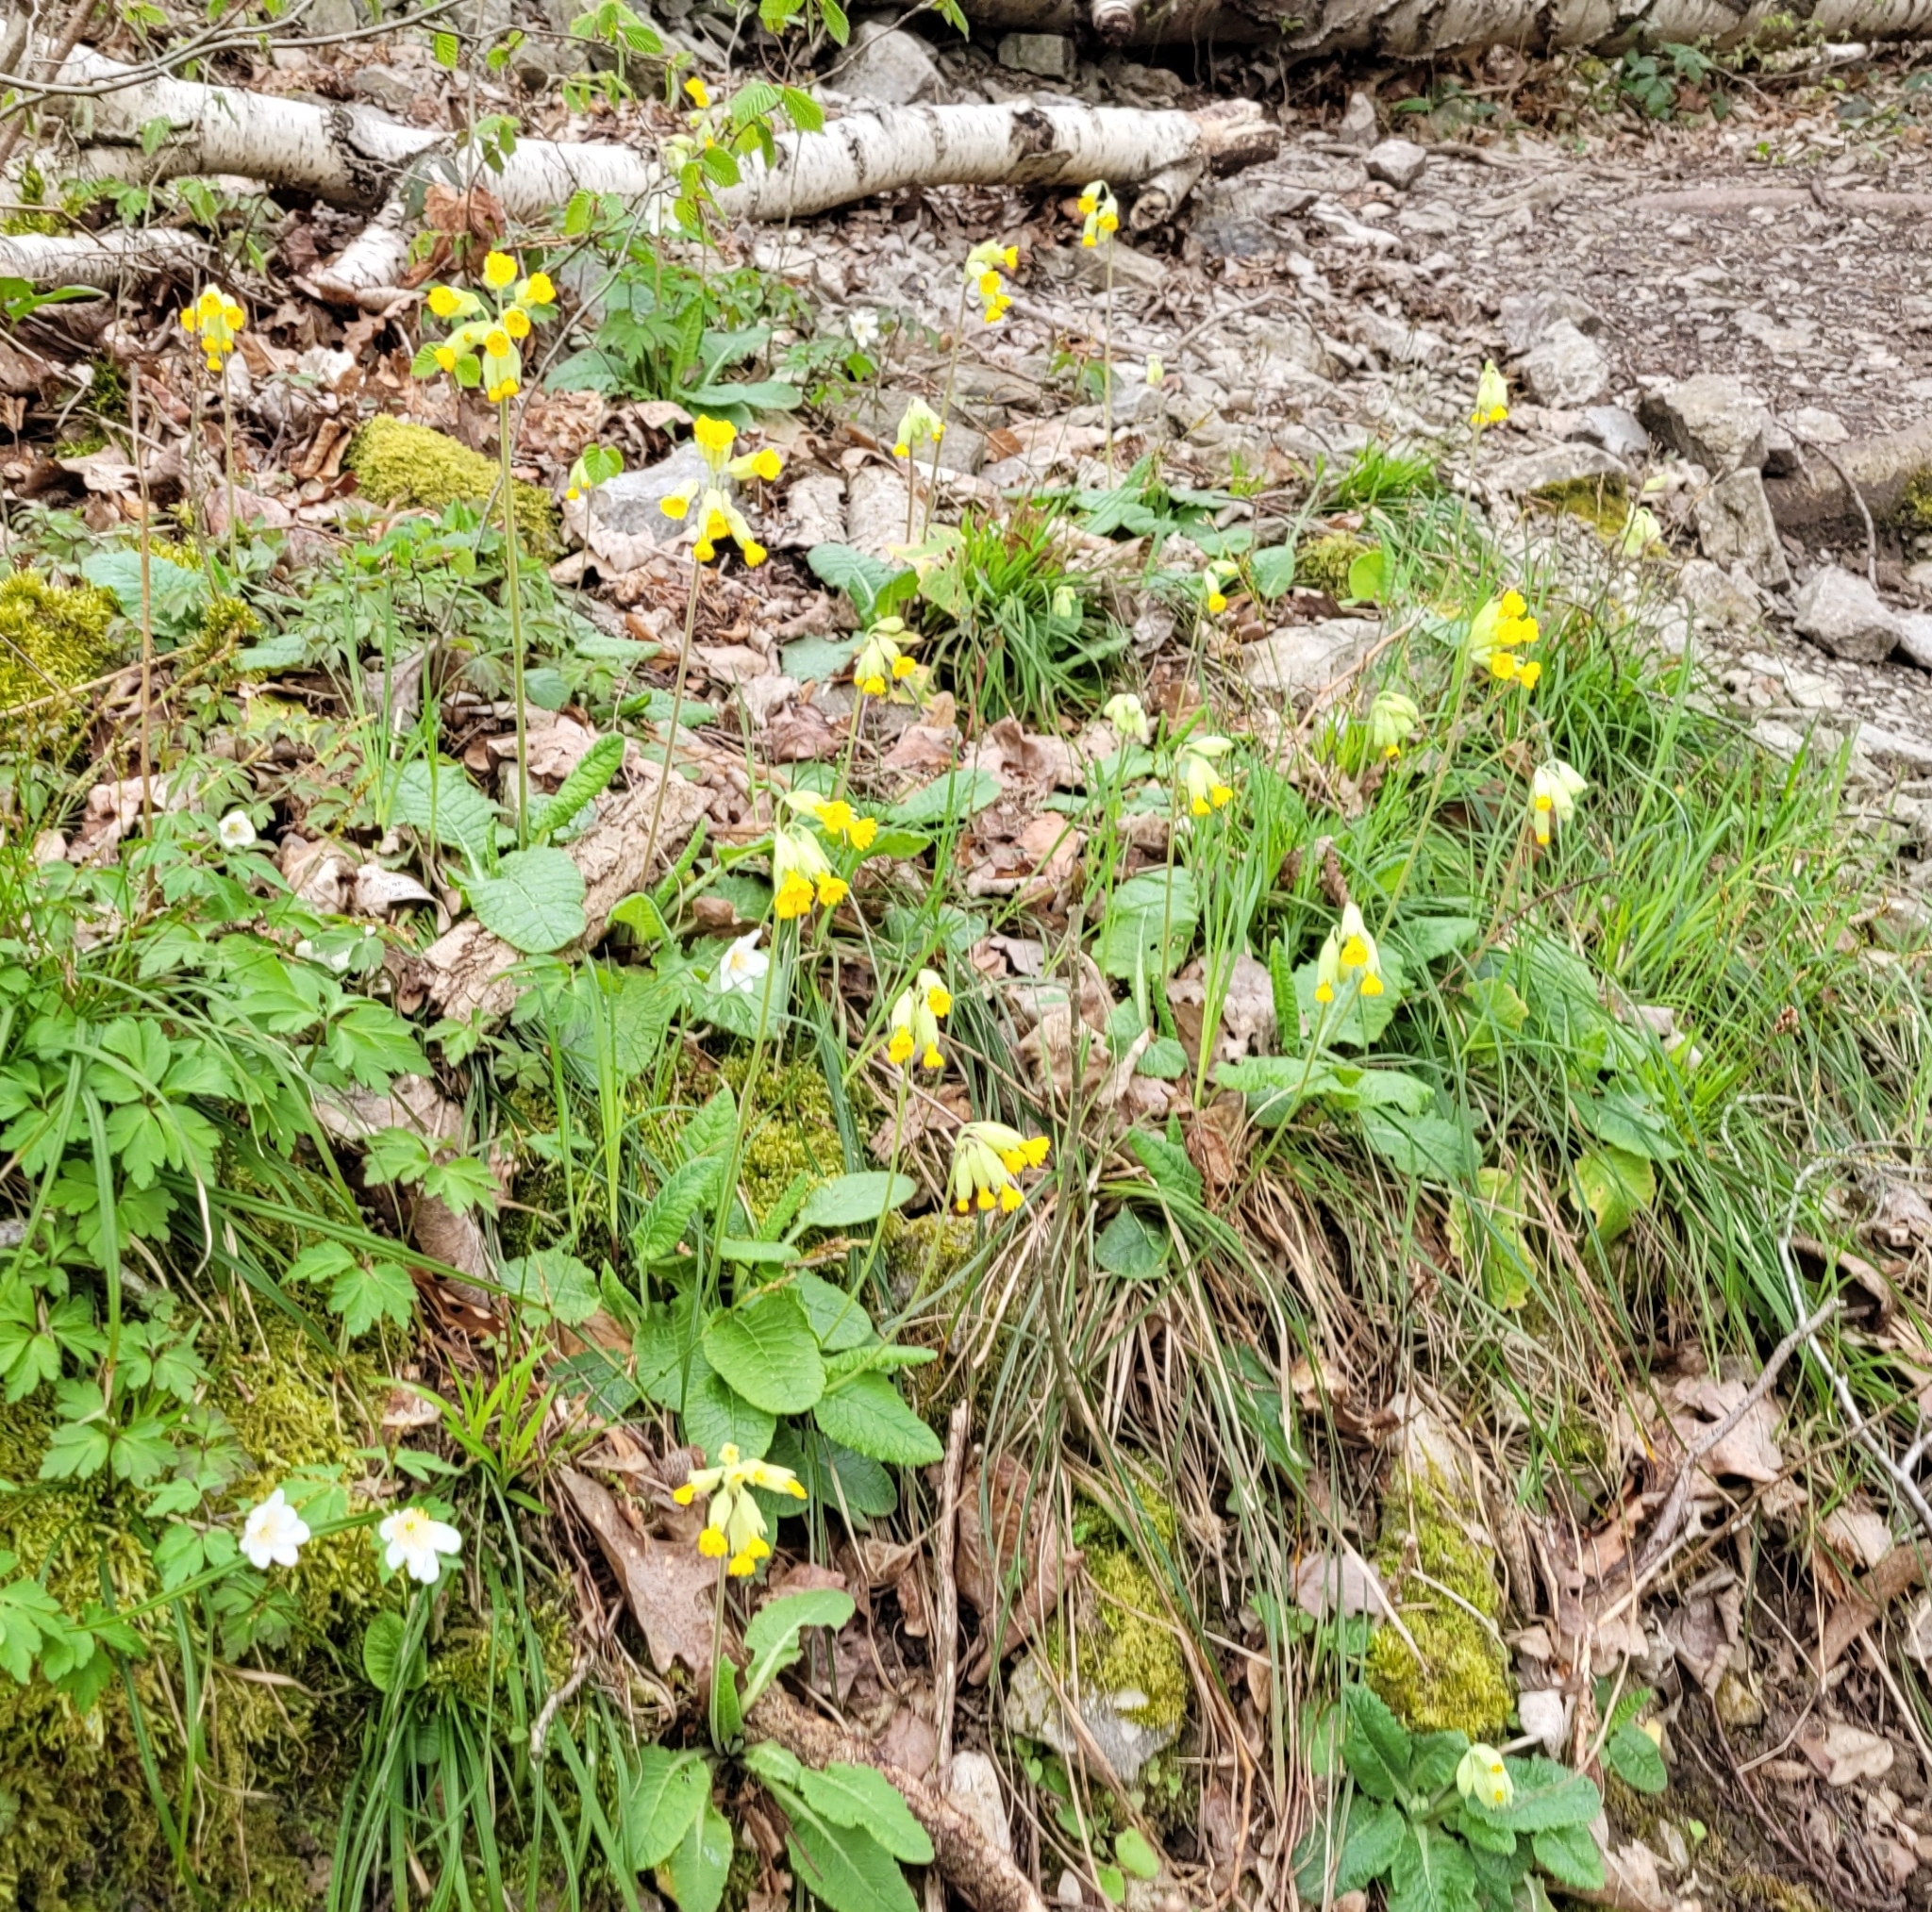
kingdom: Plantae
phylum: Tracheophyta
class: Magnoliopsida
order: Ericales
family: Primulaceae
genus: Primula
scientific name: Primula veris
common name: Cowslip
